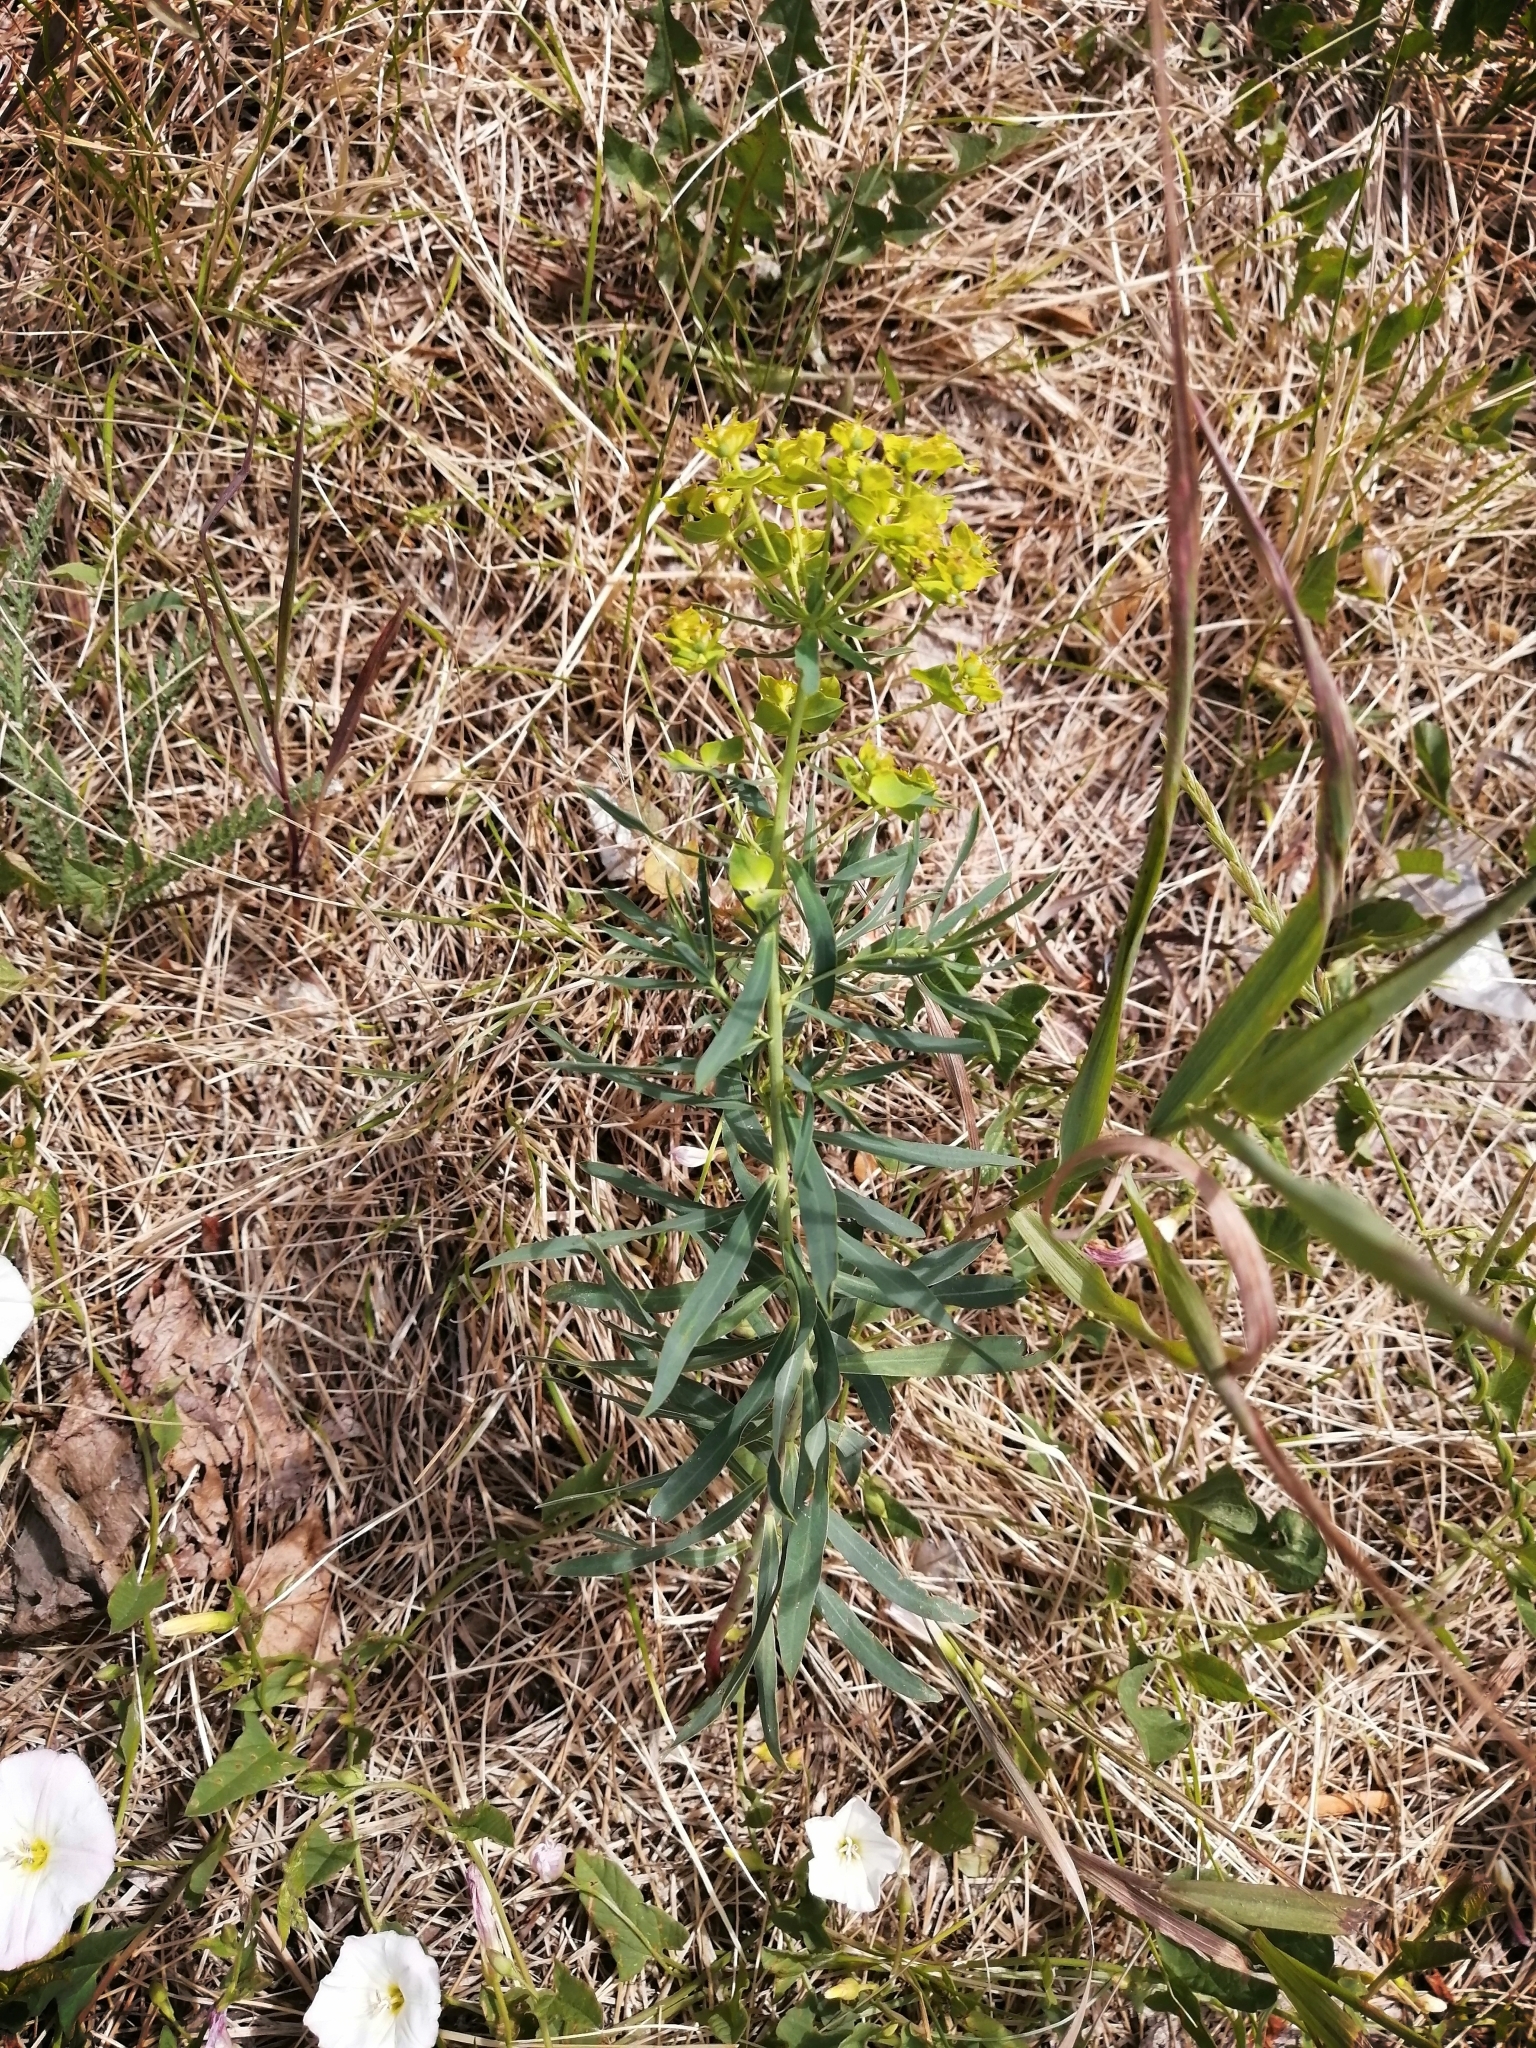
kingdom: Plantae
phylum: Tracheophyta
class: Magnoliopsida
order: Malpighiales
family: Euphorbiaceae
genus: Euphorbia
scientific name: Euphorbia virgata
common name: Leafy spurge
